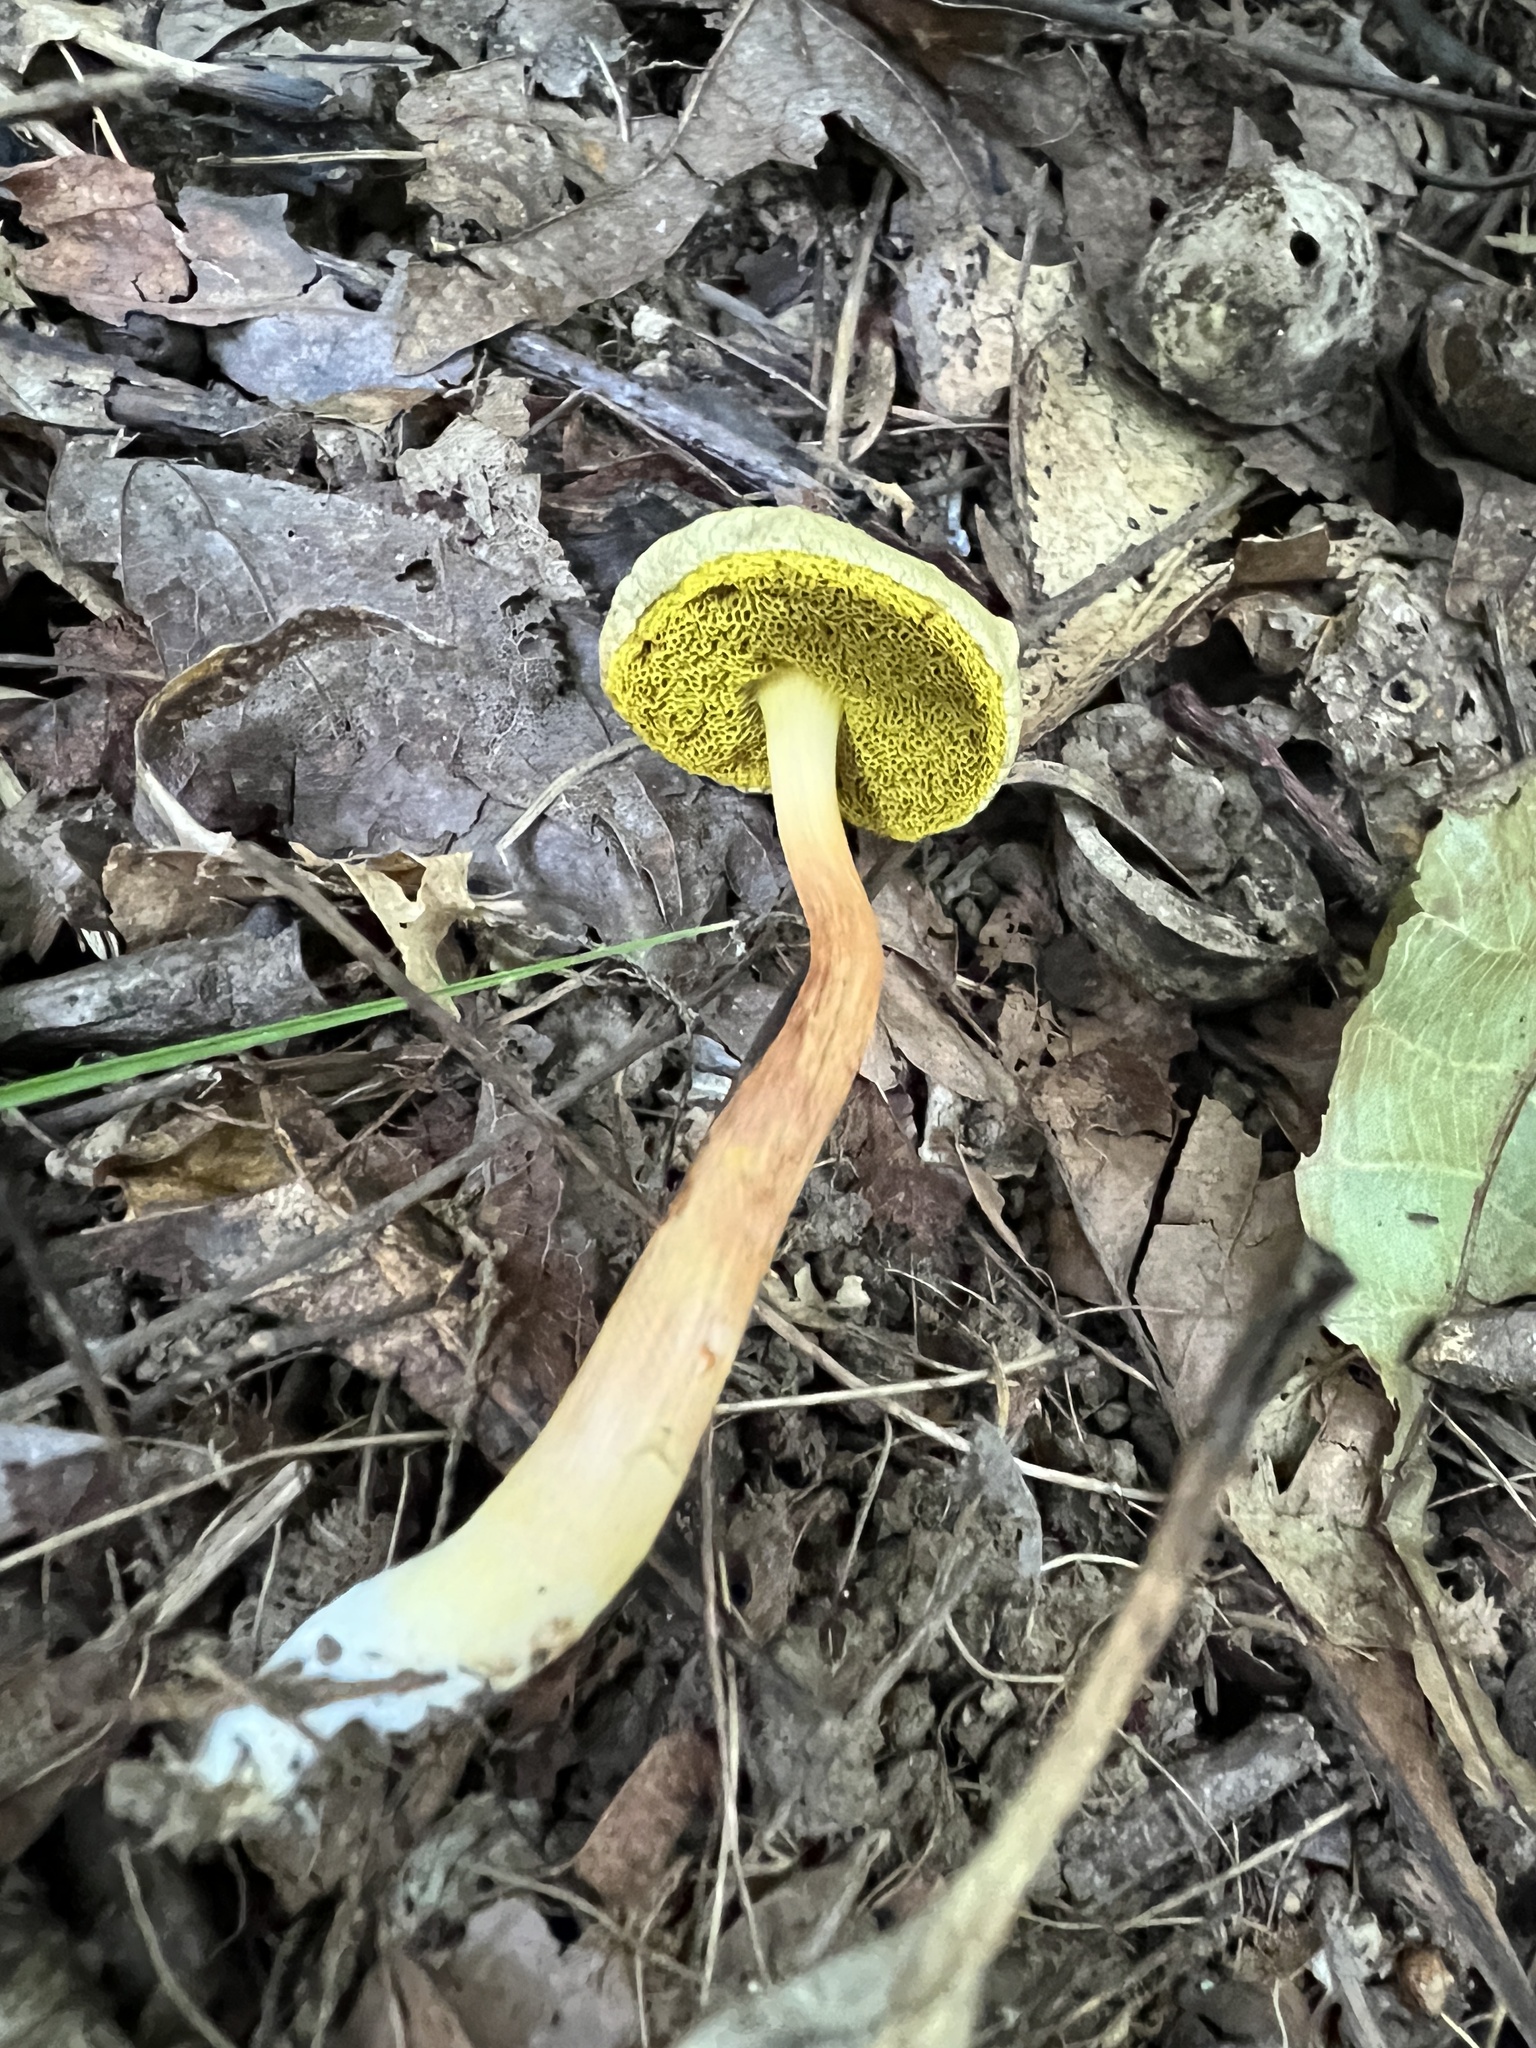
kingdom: Fungi
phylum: Basidiomycota
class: Agaricomycetes
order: Boletales
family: Boletaceae
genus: Aureoboletus
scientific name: Aureoboletus auriporus
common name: Sour gold-pored bolete
